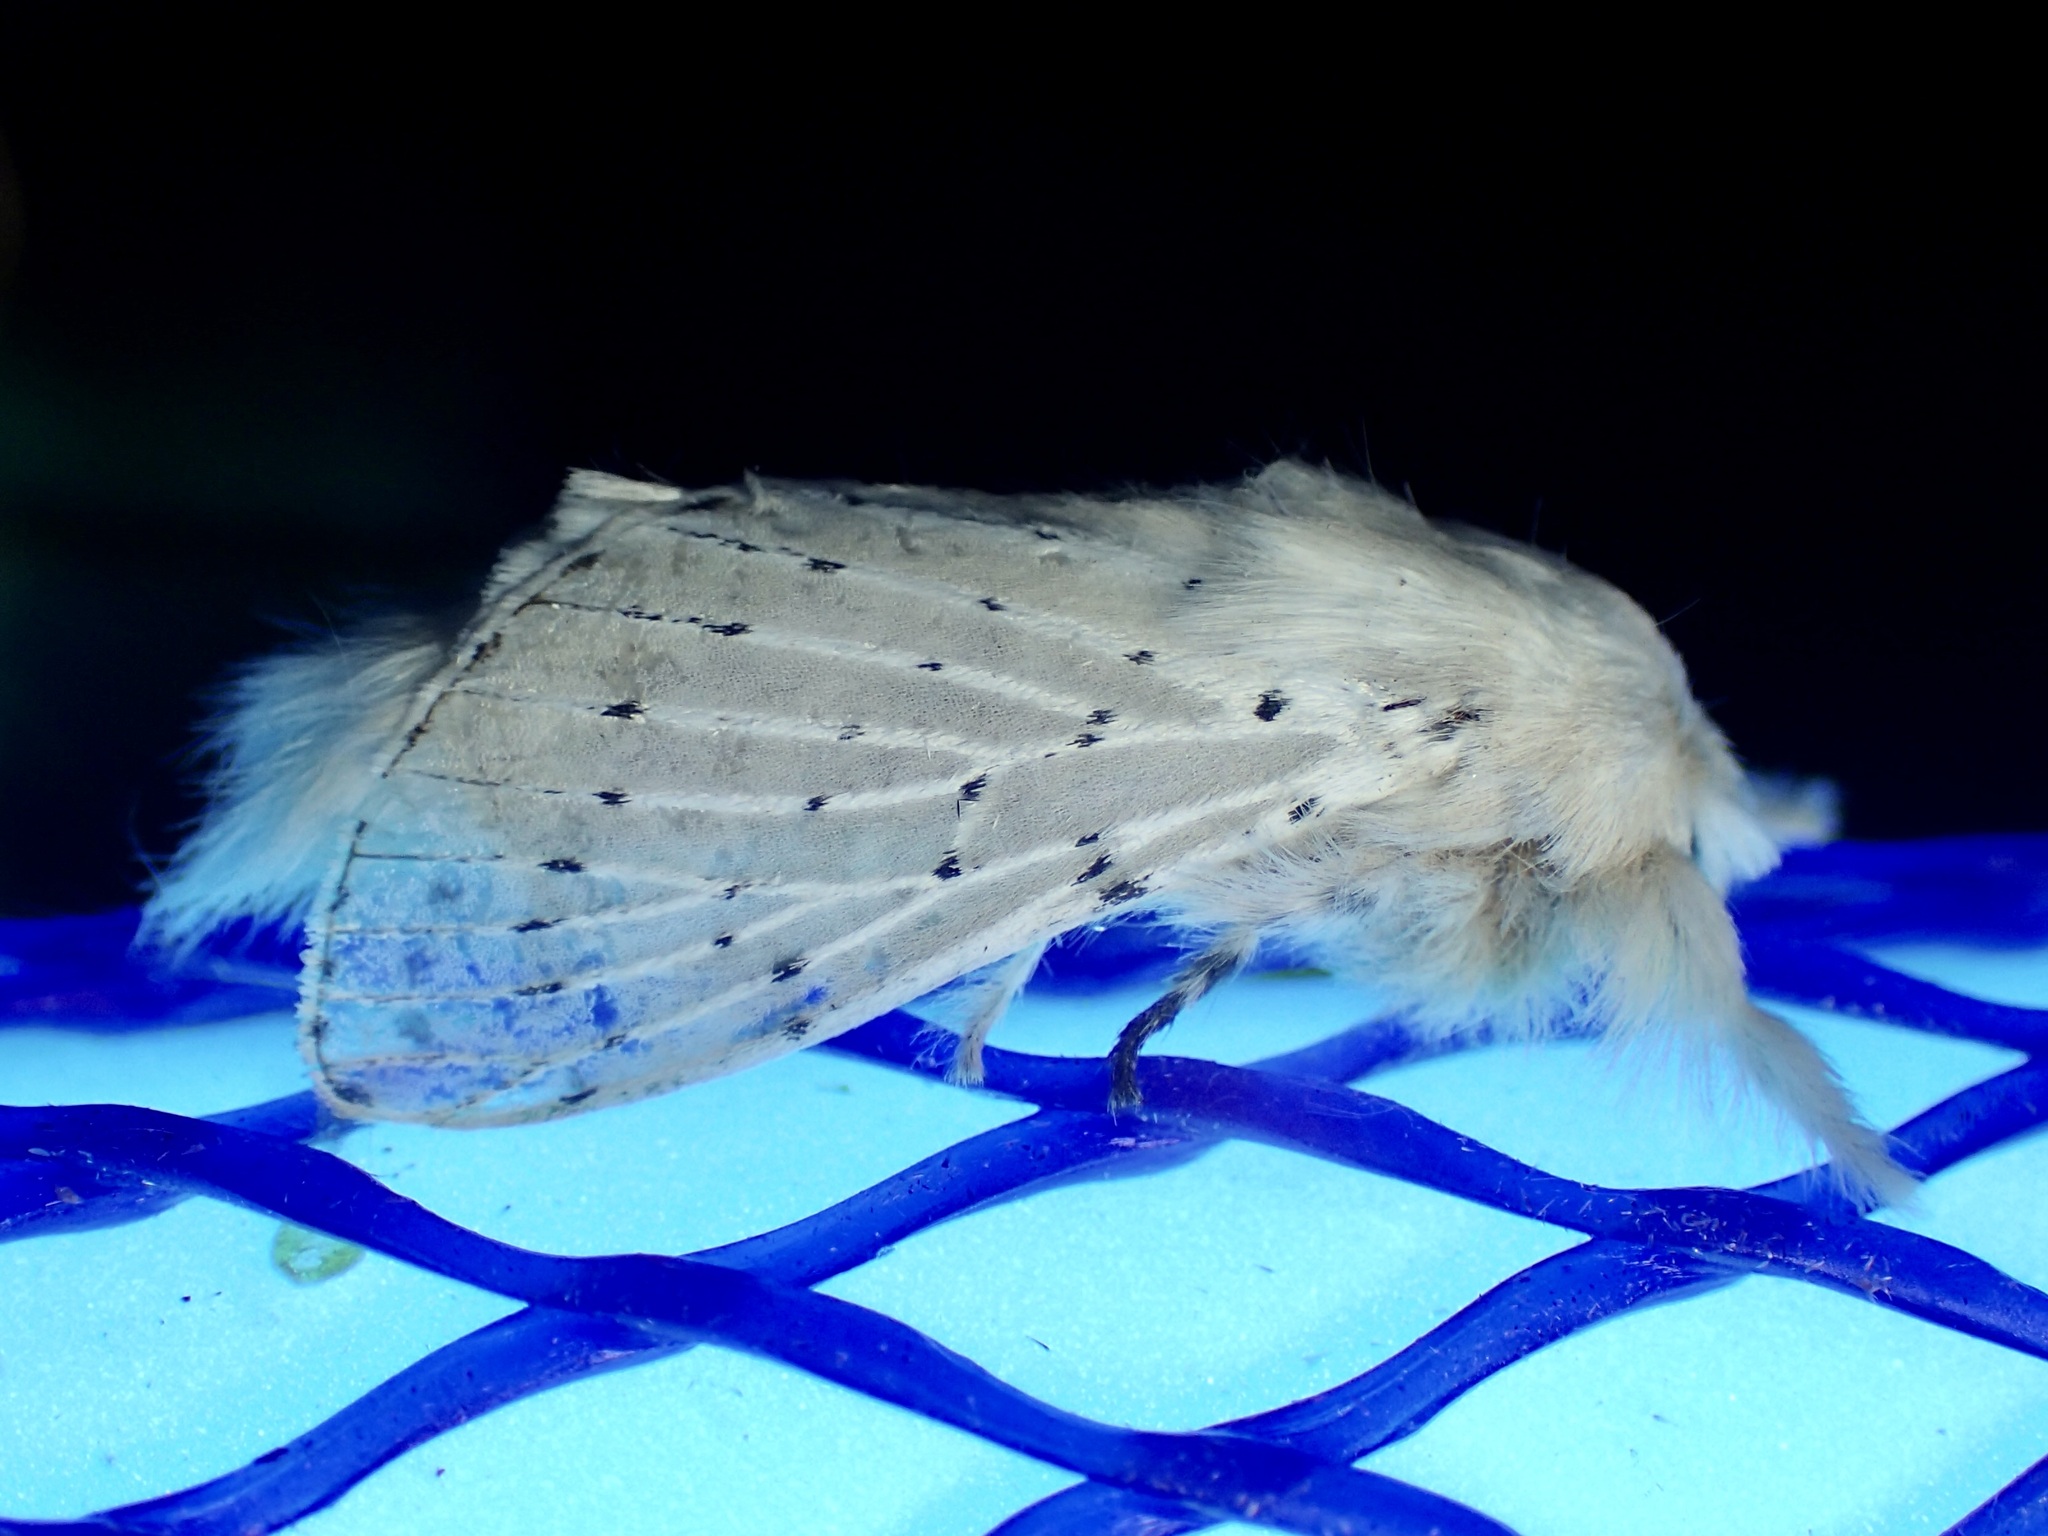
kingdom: Animalia
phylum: Arthropoda
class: Insecta
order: Lepidoptera
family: Lasiocampidae
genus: Artace
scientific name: Artace colaria
